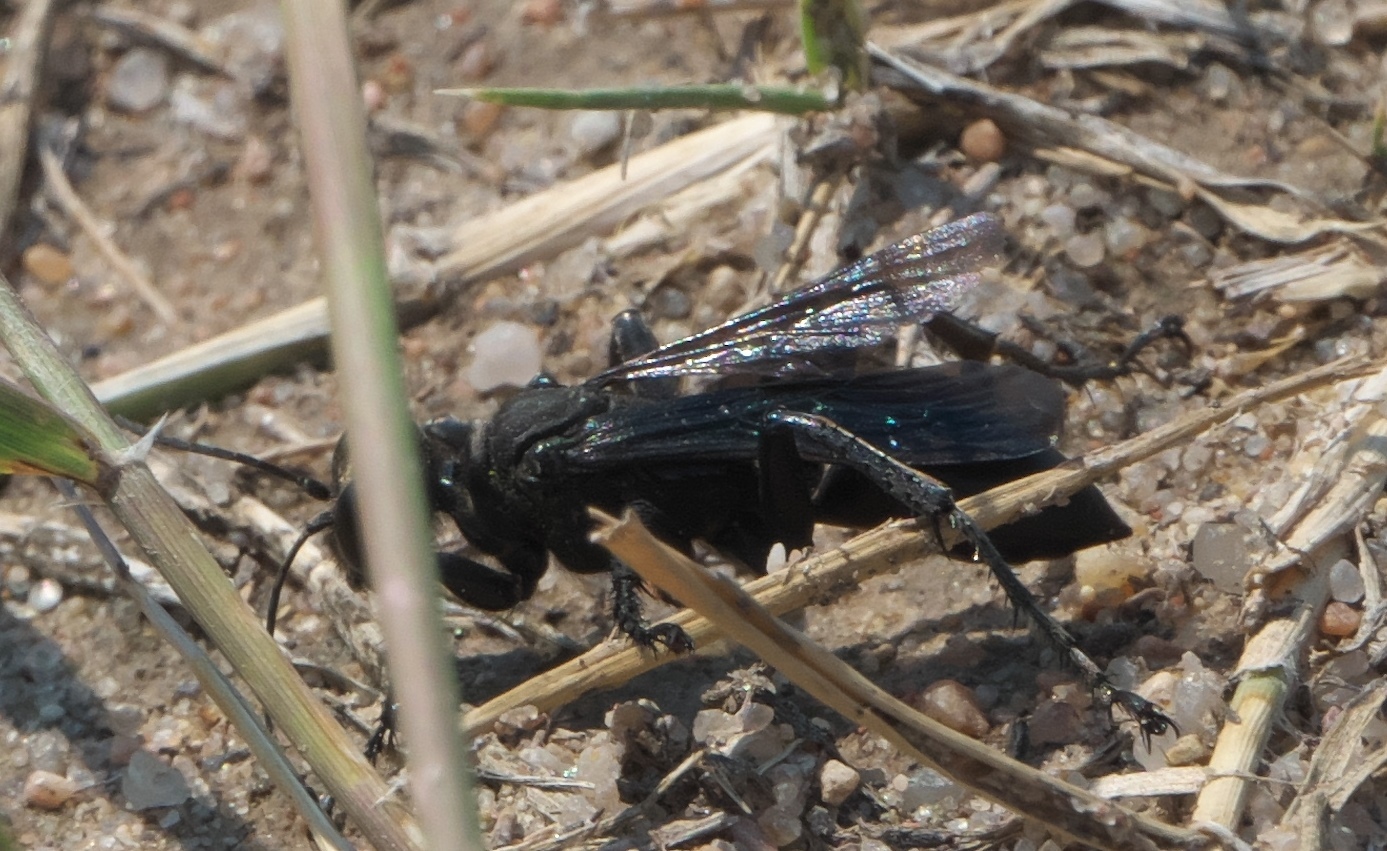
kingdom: Animalia
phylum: Arthropoda
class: Insecta
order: Hymenoptera
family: Sphecidae
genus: Prionyx
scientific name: Prionyx atratus
